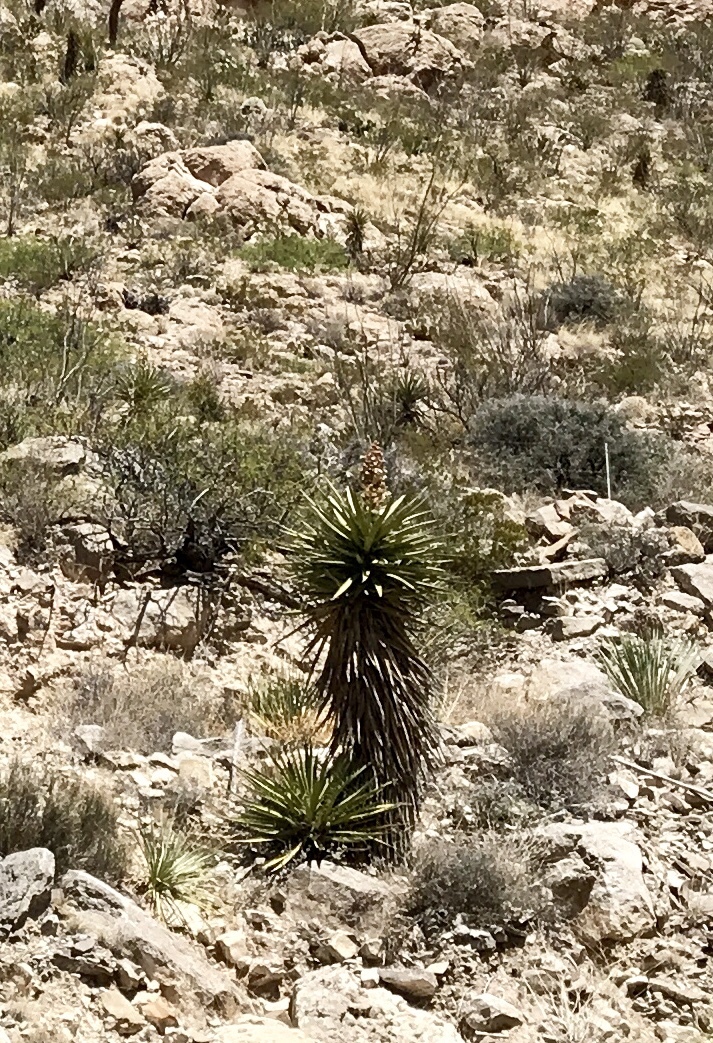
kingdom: Plantae
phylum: Tracheophyta
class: Liliopsida
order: Asparagales
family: Asparagaceae
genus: Yucca
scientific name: Yucca treculiana
